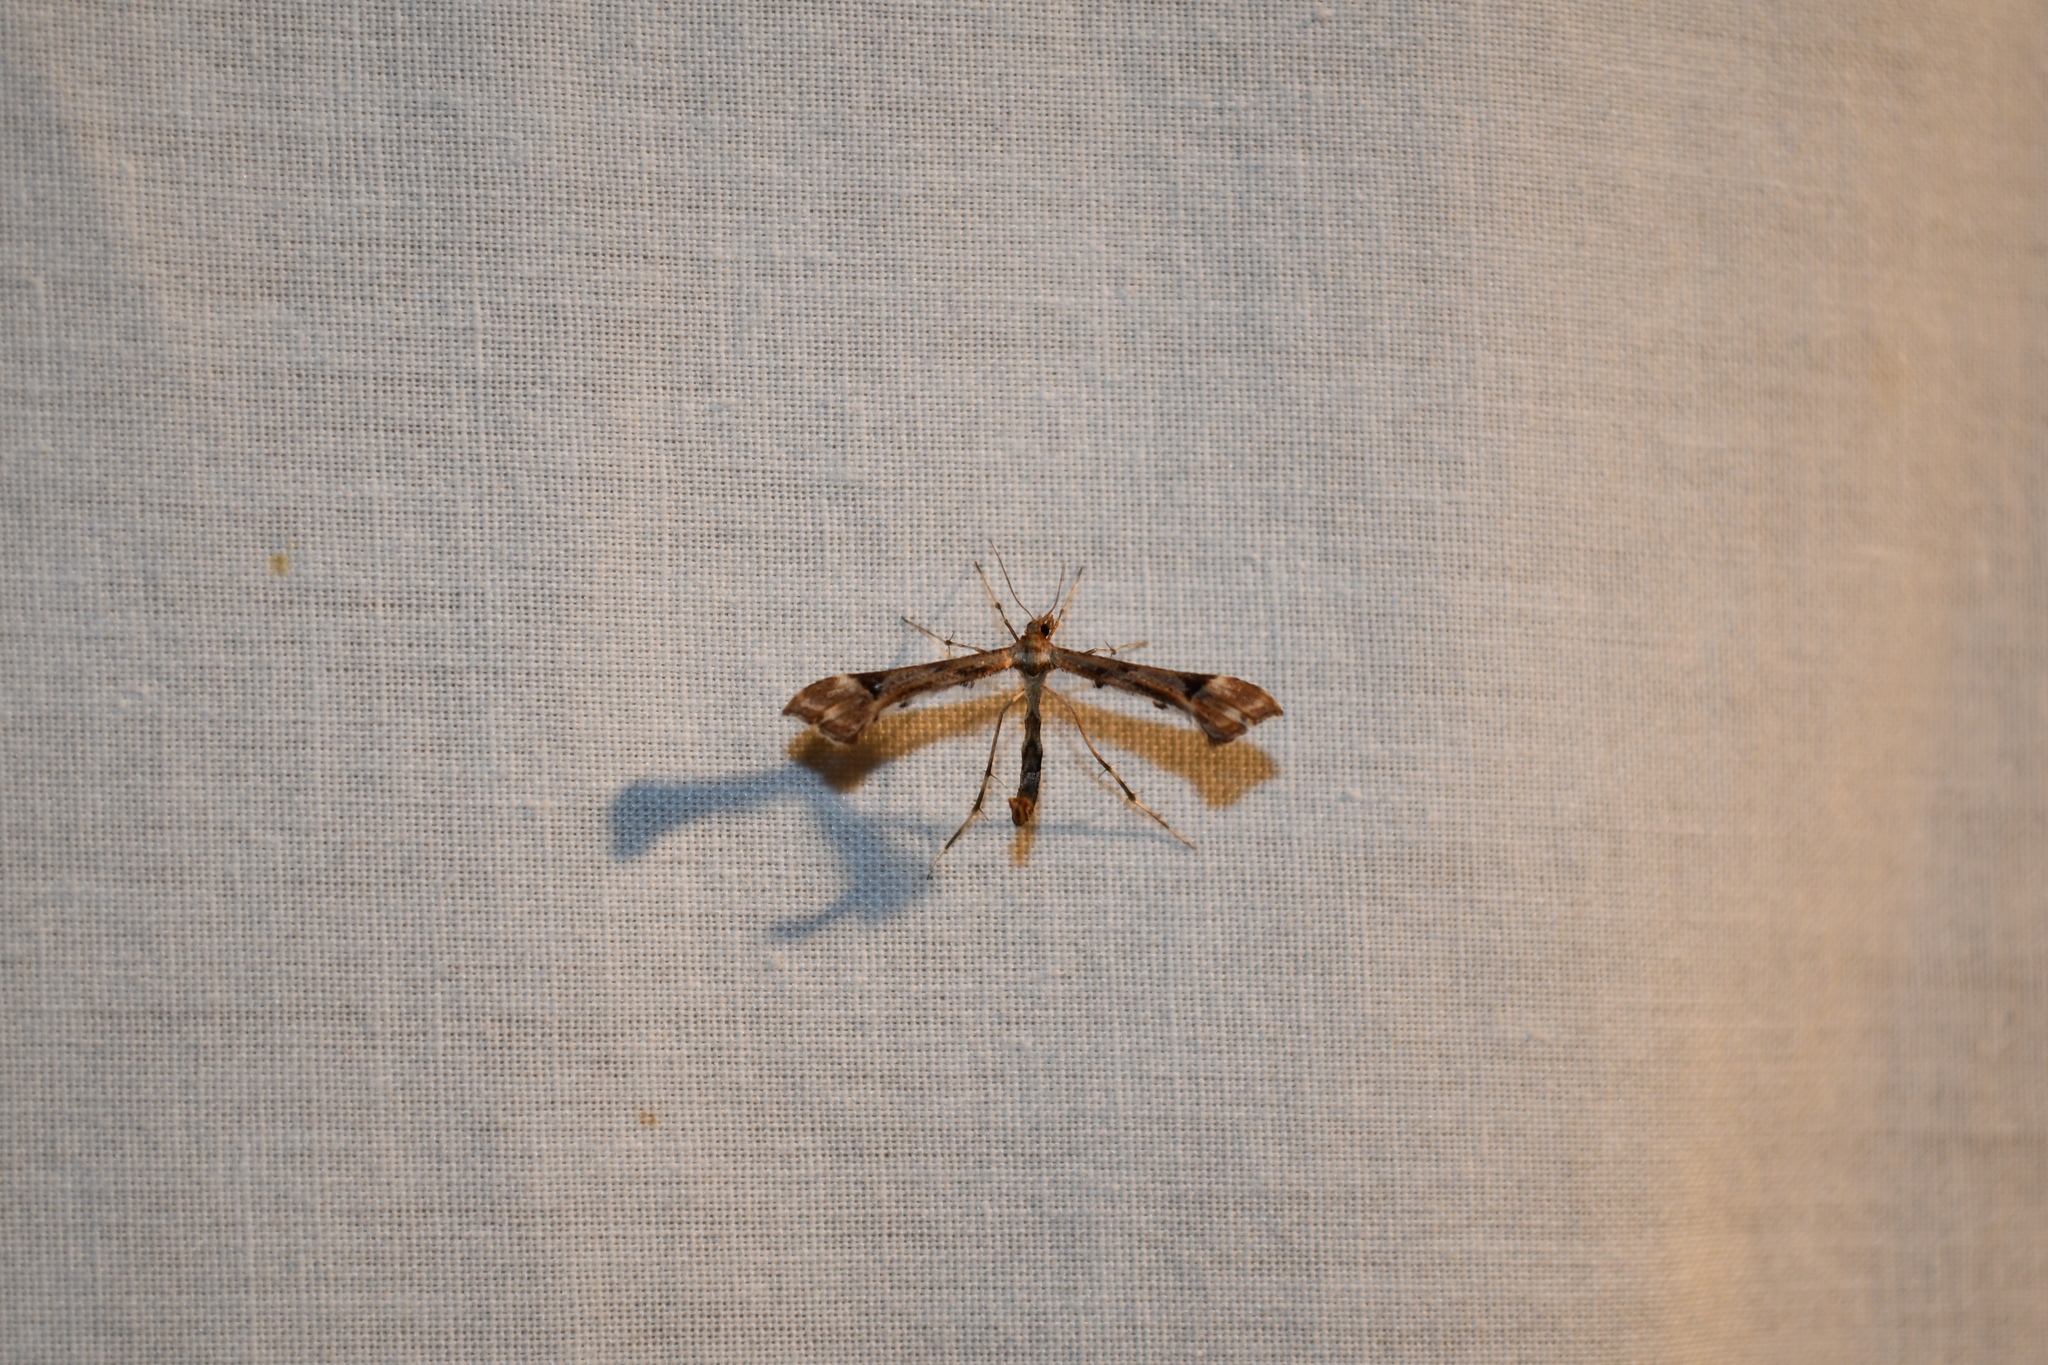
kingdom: Animalia
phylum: Arthropoda
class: Insecta
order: Lepidoptera
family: Pterophoridae
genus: Platyptilia
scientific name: Platyptilia carduidactylus
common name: Artichoke plume moth
